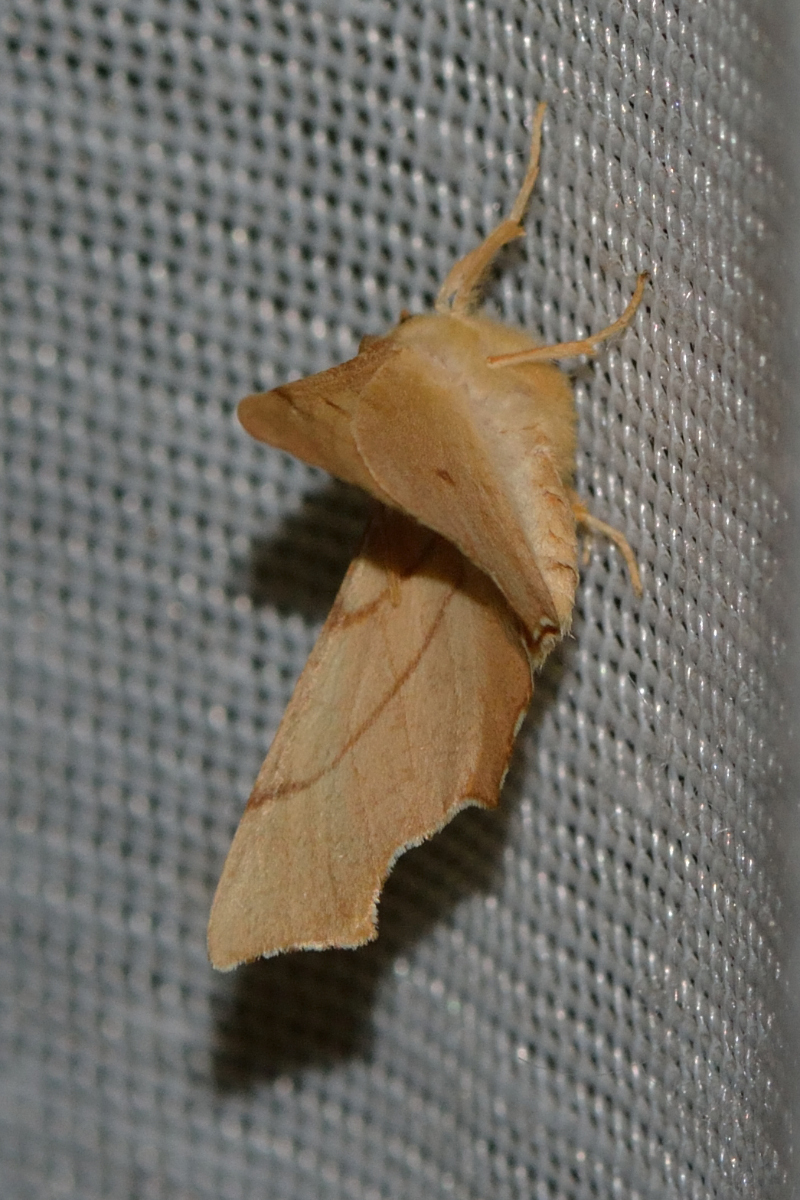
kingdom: Animalia
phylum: Arthropoda
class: Insecta
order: Lepidoptera
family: Geometridae
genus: Ennomos
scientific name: Ennomos erosaria
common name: September thorn
